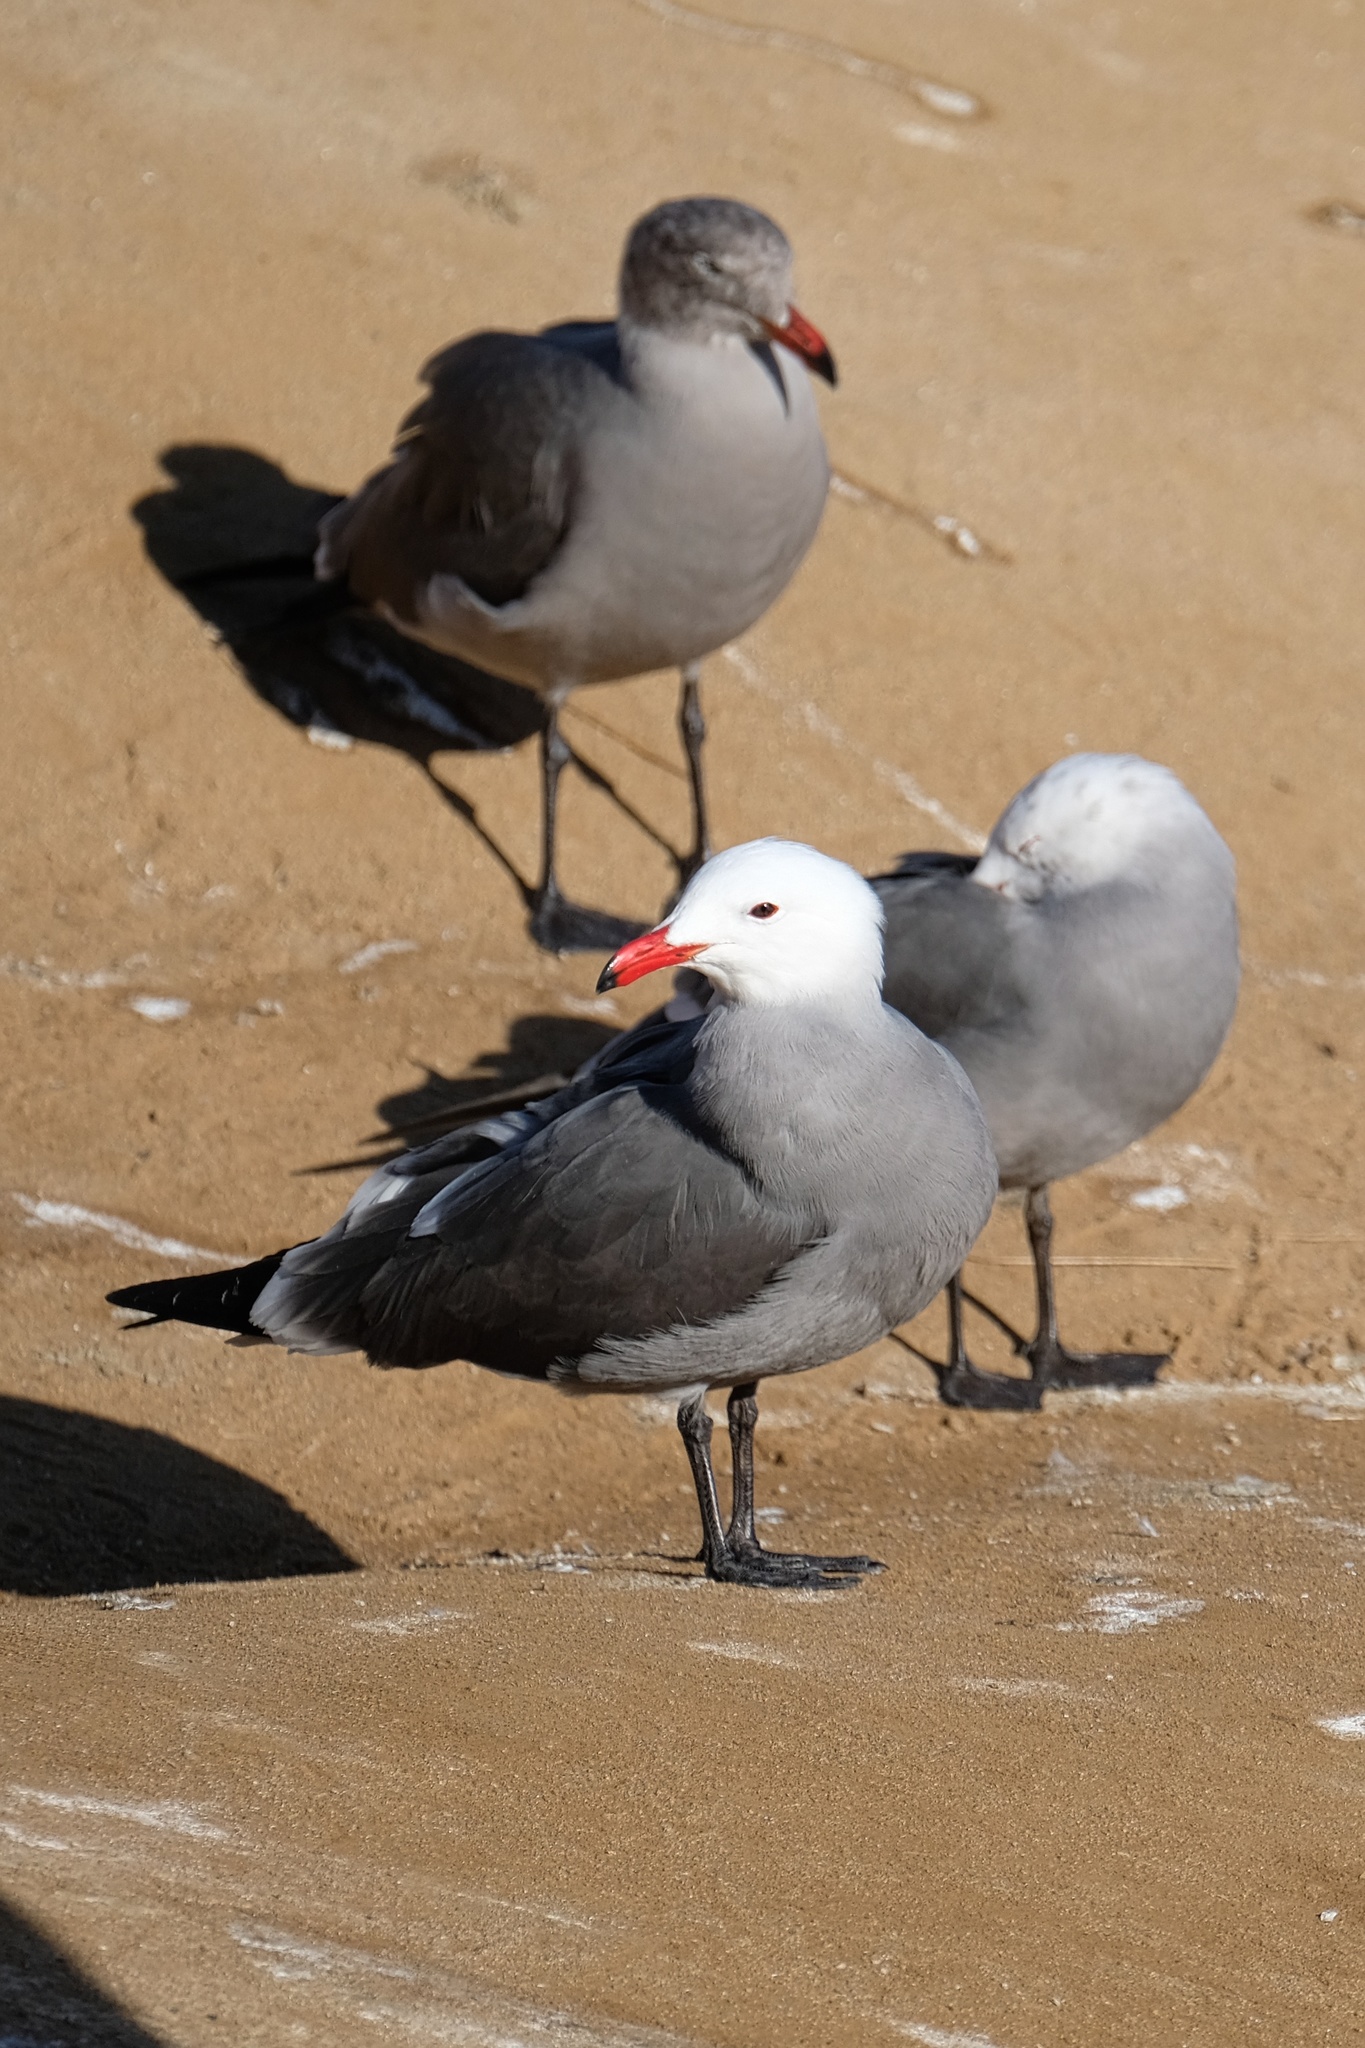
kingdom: Animalia
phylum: Chordata
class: Aves
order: Charadriiformes
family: Laridae
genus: Larus
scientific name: Larus heermanni
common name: Heermann's gull
